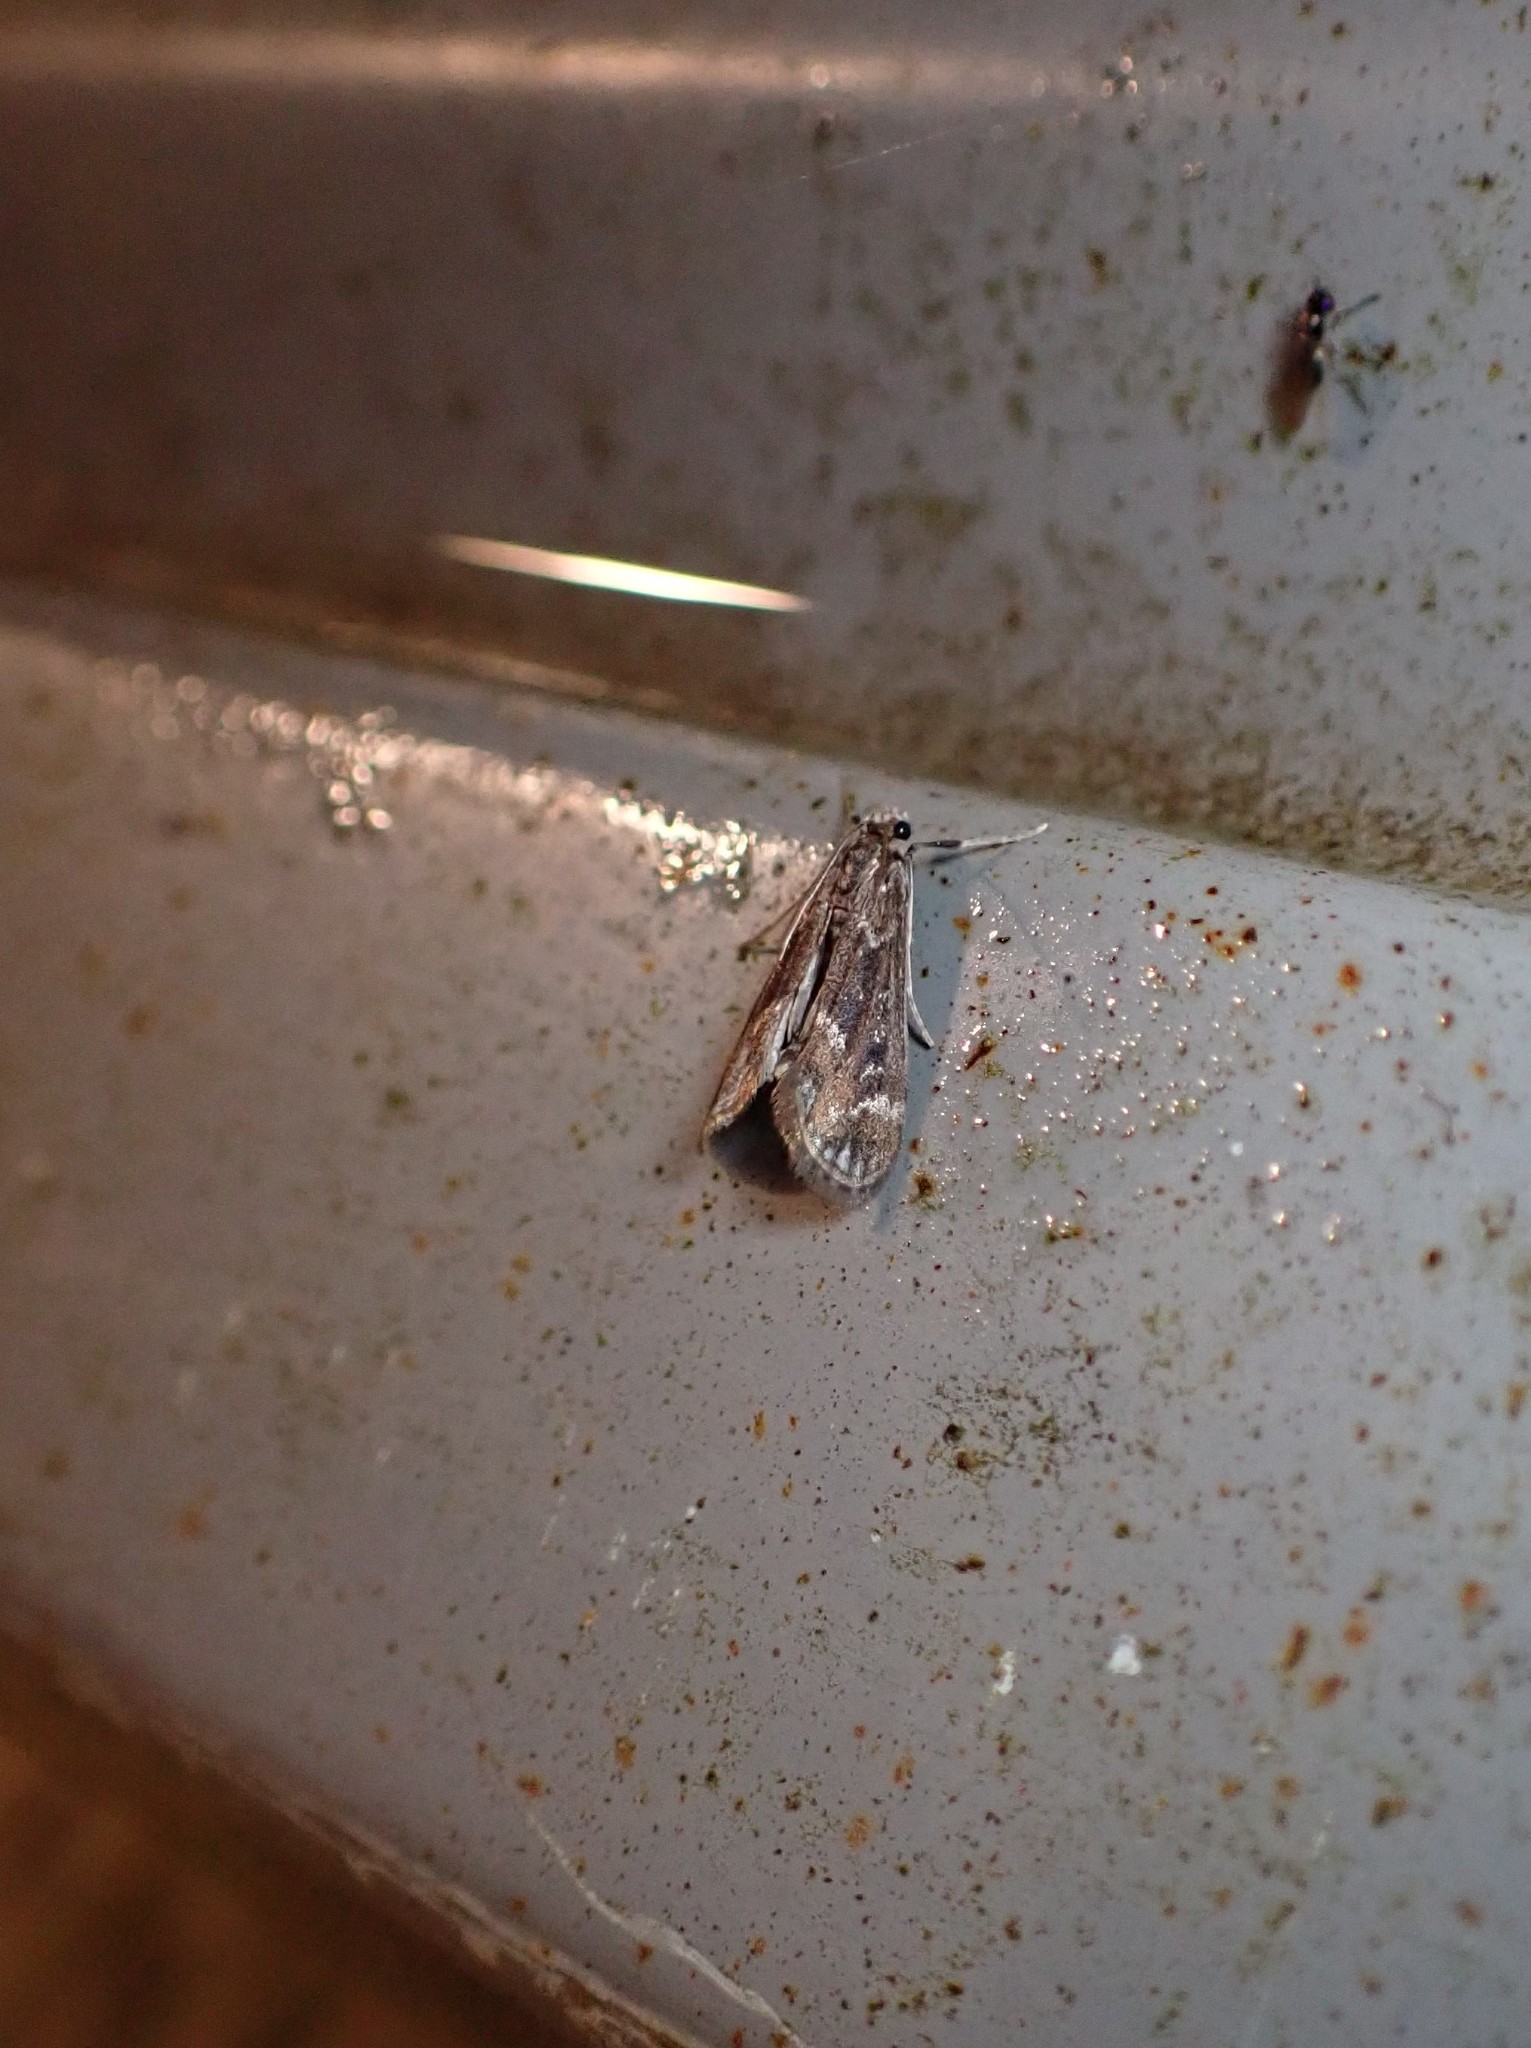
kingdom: Animalia
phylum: Arthropoda
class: Insecta
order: Lepidoptera
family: Crambidae
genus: Hygraula
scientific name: Hygraula nitens
